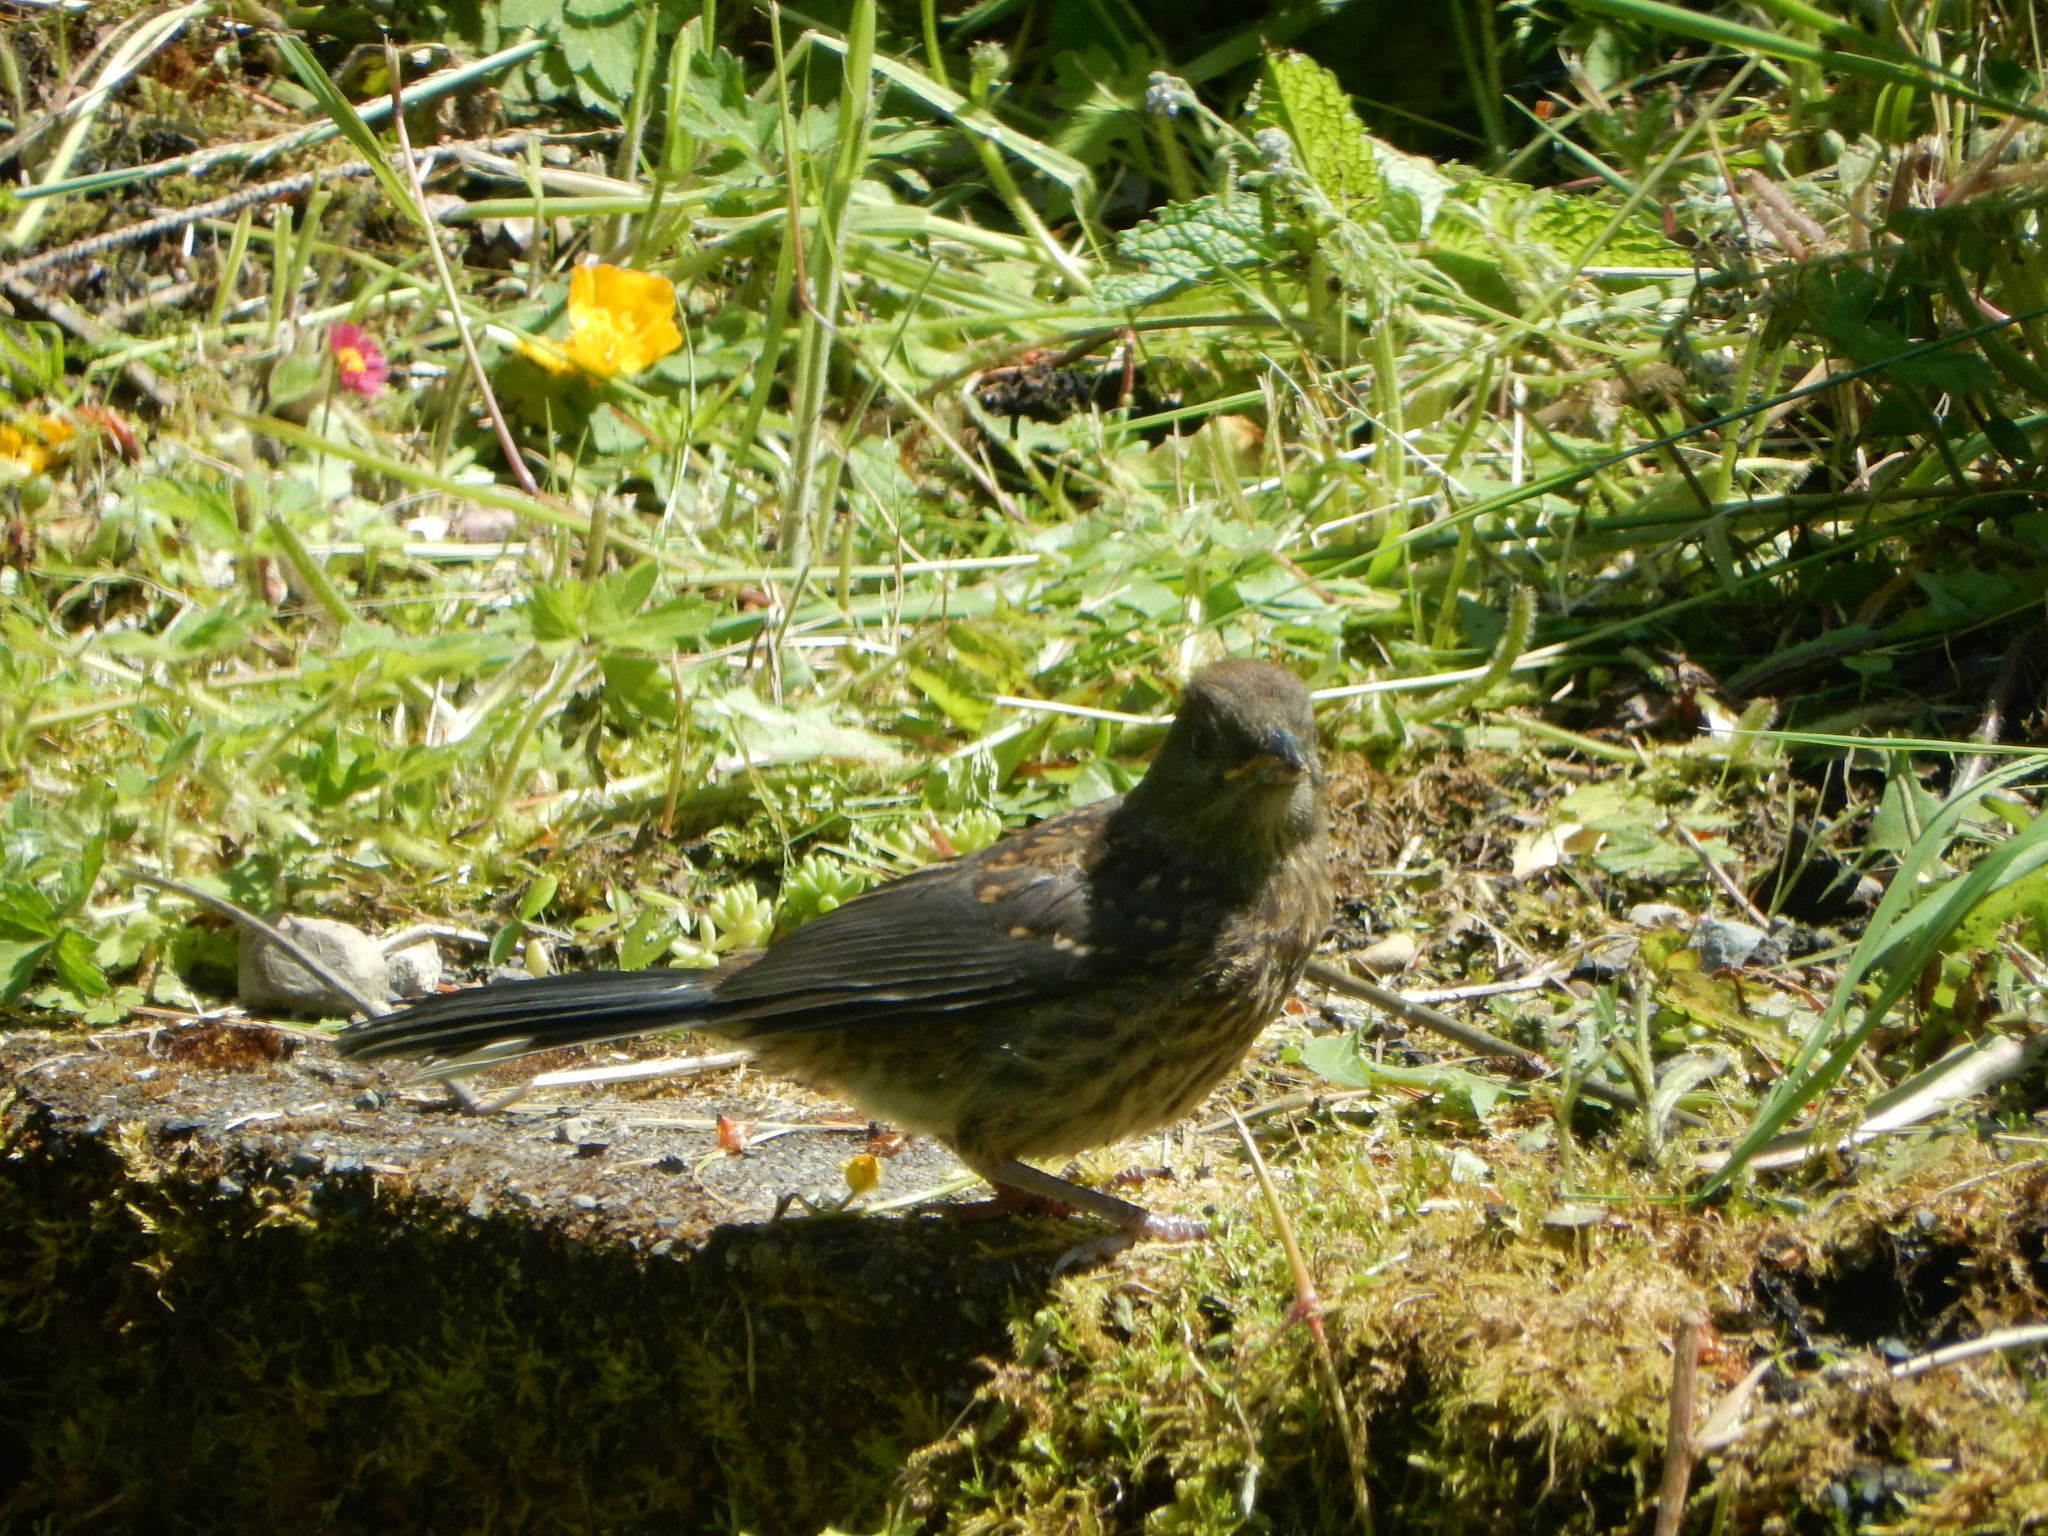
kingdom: Animalia
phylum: Chordata
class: Aves
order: Passeriformes
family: Passerellidae
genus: Pipilo
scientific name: Pipilo maculatus
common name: Spotted towhee
